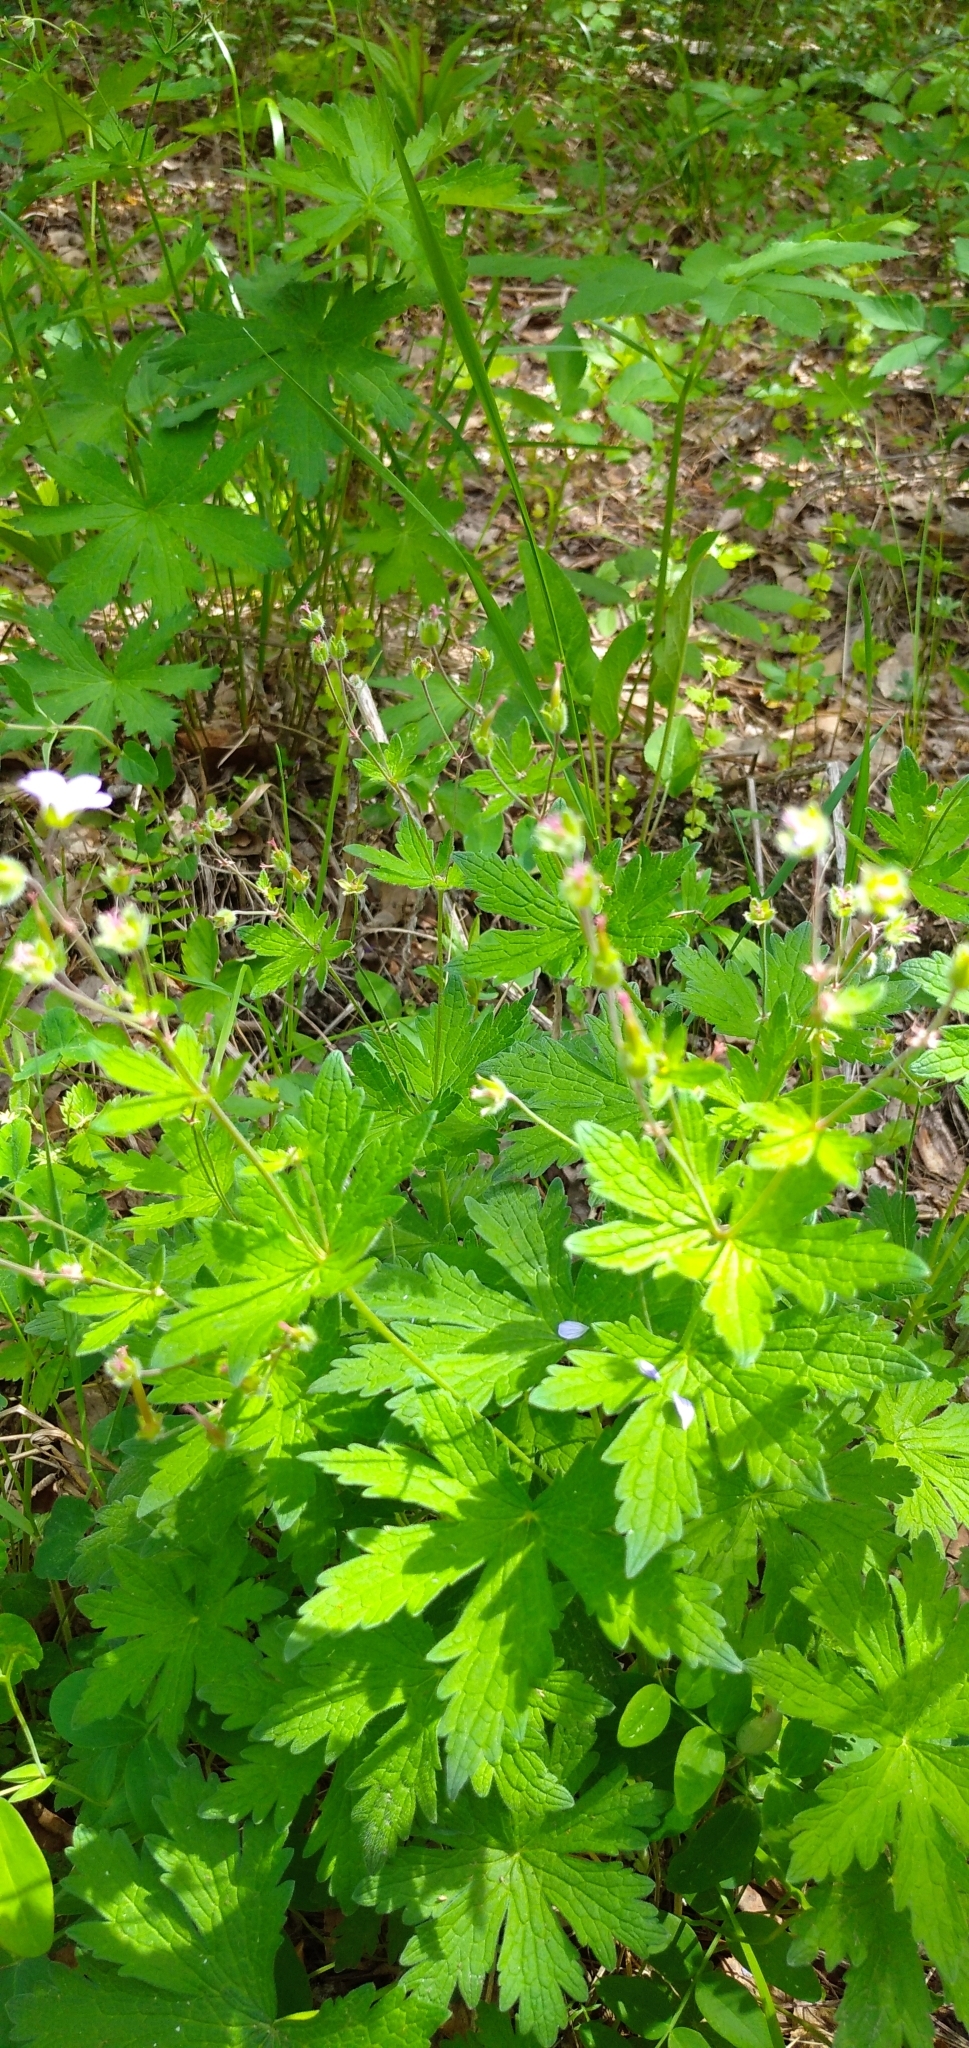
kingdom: Plantae
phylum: Tracheophyta
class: Magnoliopsida
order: Geraniales
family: Geraniaceae
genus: Geranium
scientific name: Geranium sibiricum
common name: Siberian crane's-bill
